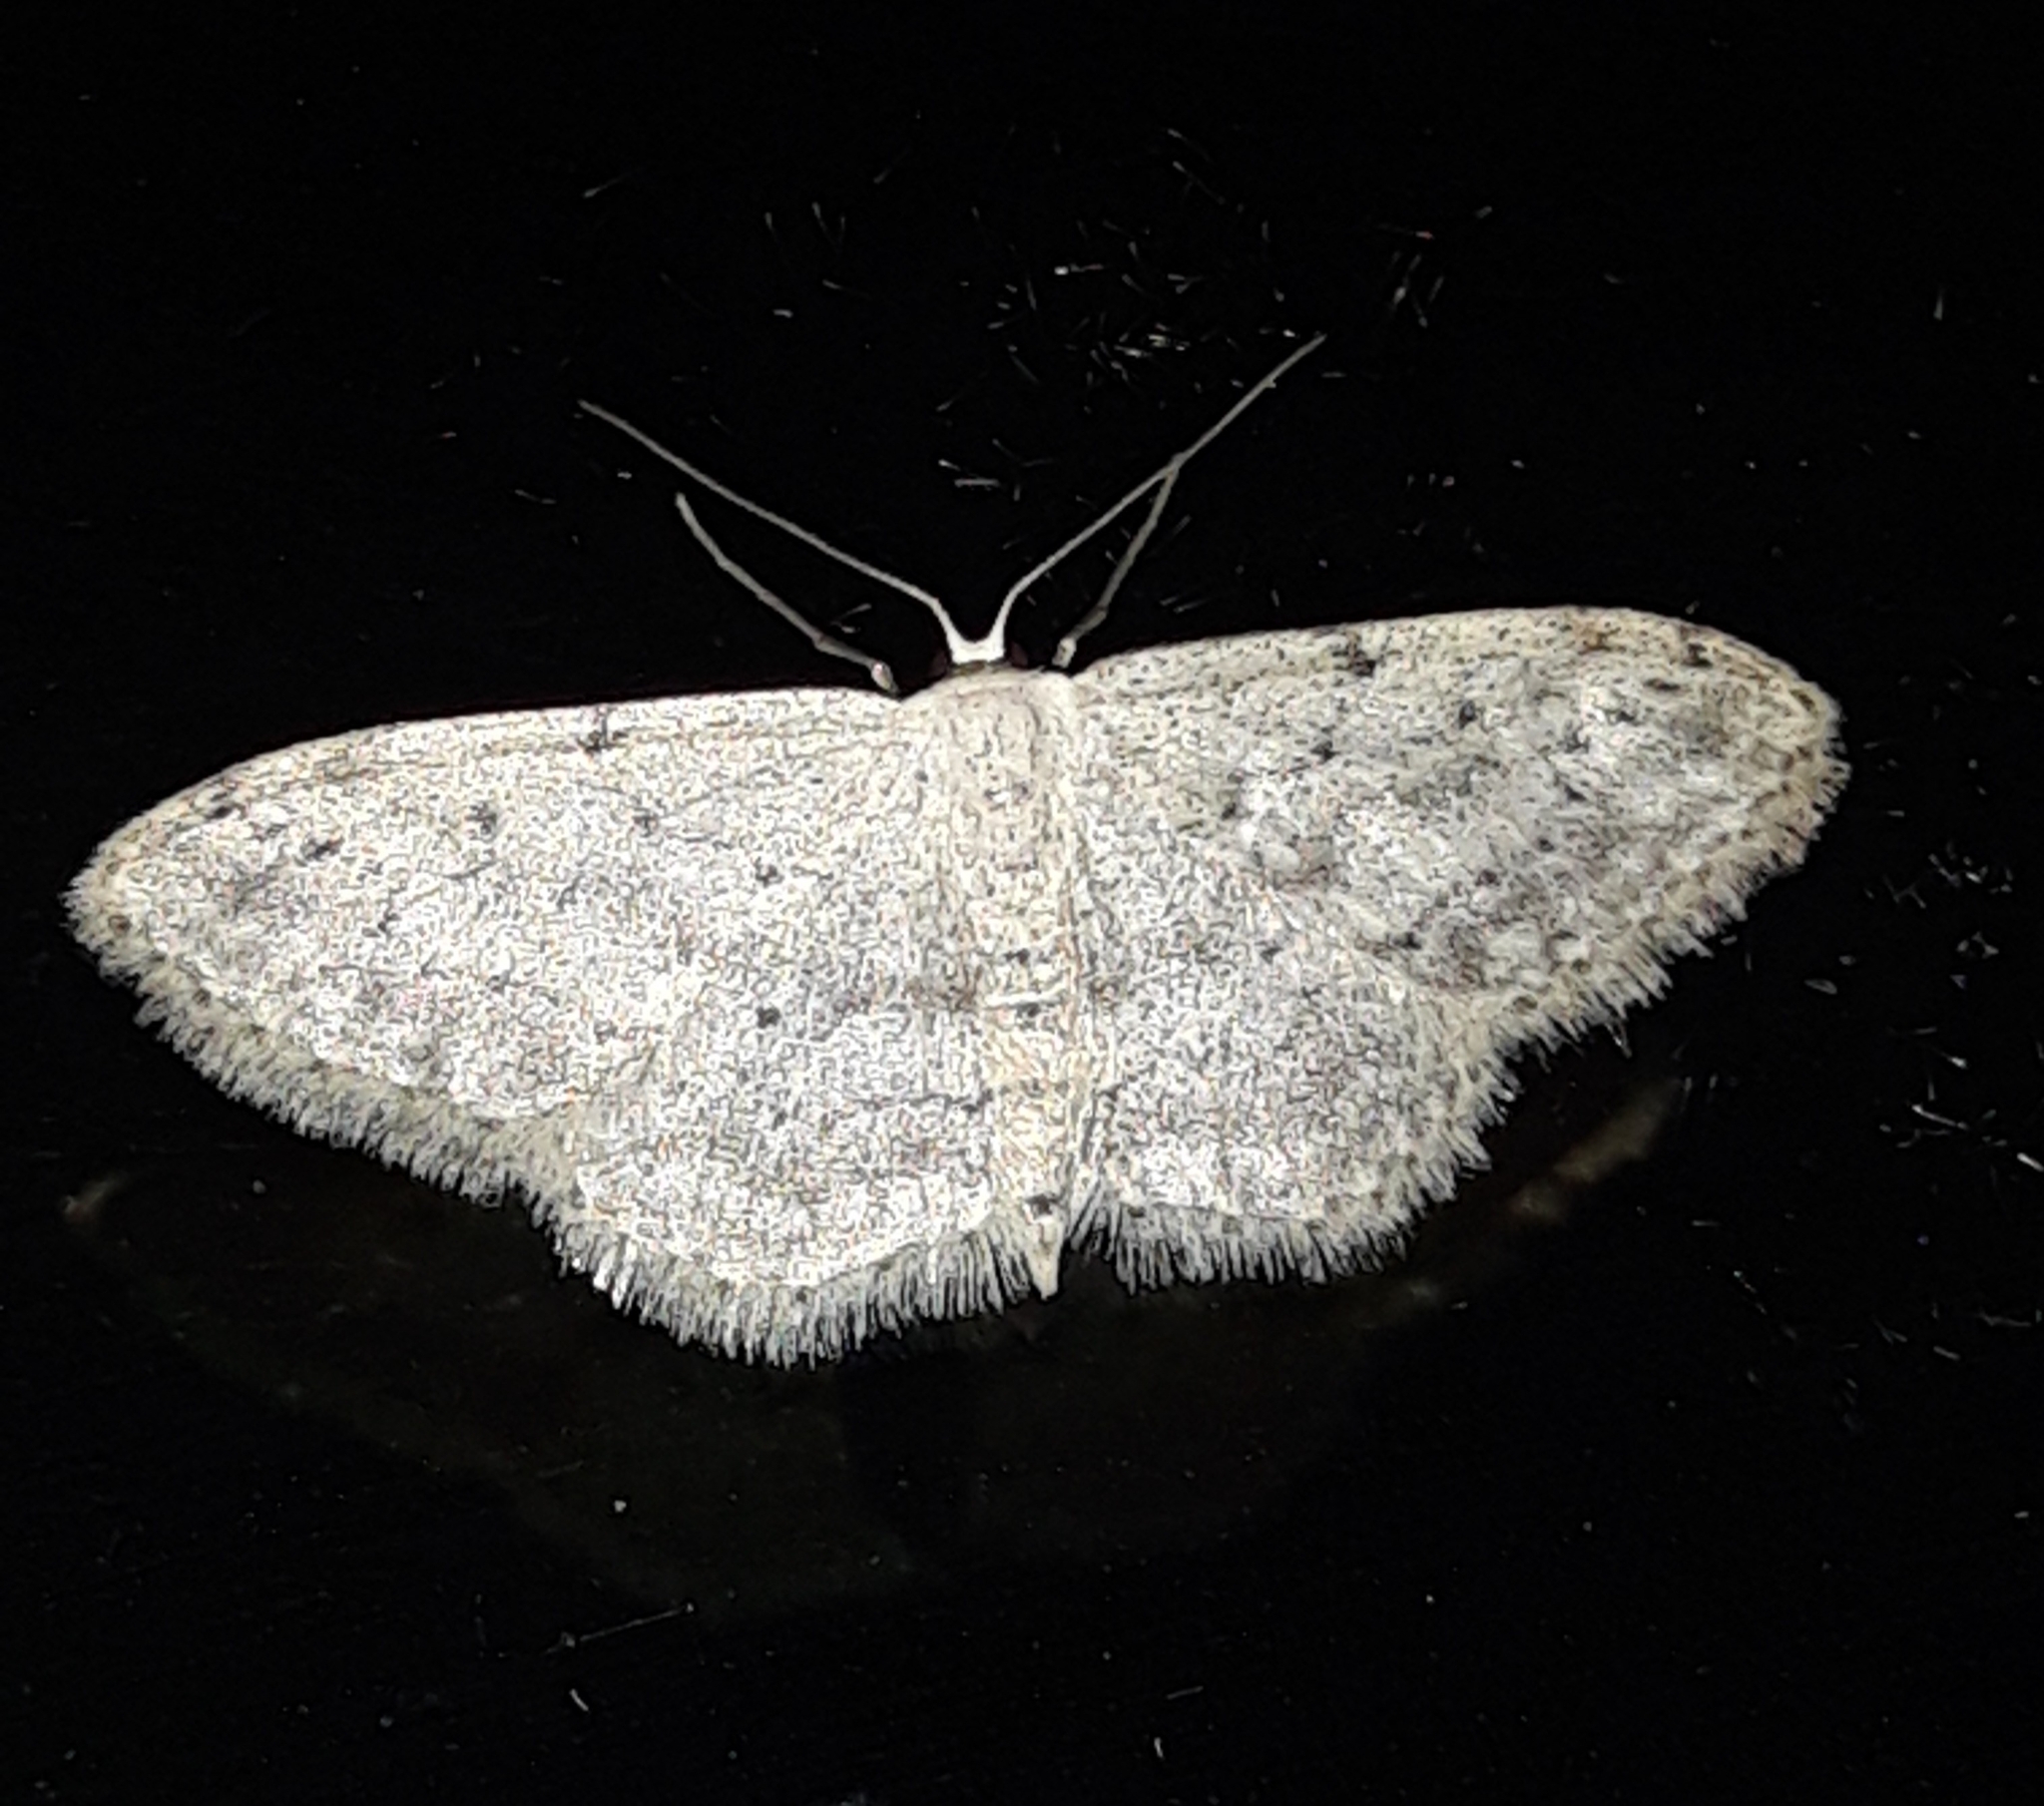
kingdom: Animalia
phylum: Arthropoda
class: Insecta
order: Lepidoptera
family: Geometridae
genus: Idaea
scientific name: Idaea seriata
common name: Small dusty wave
